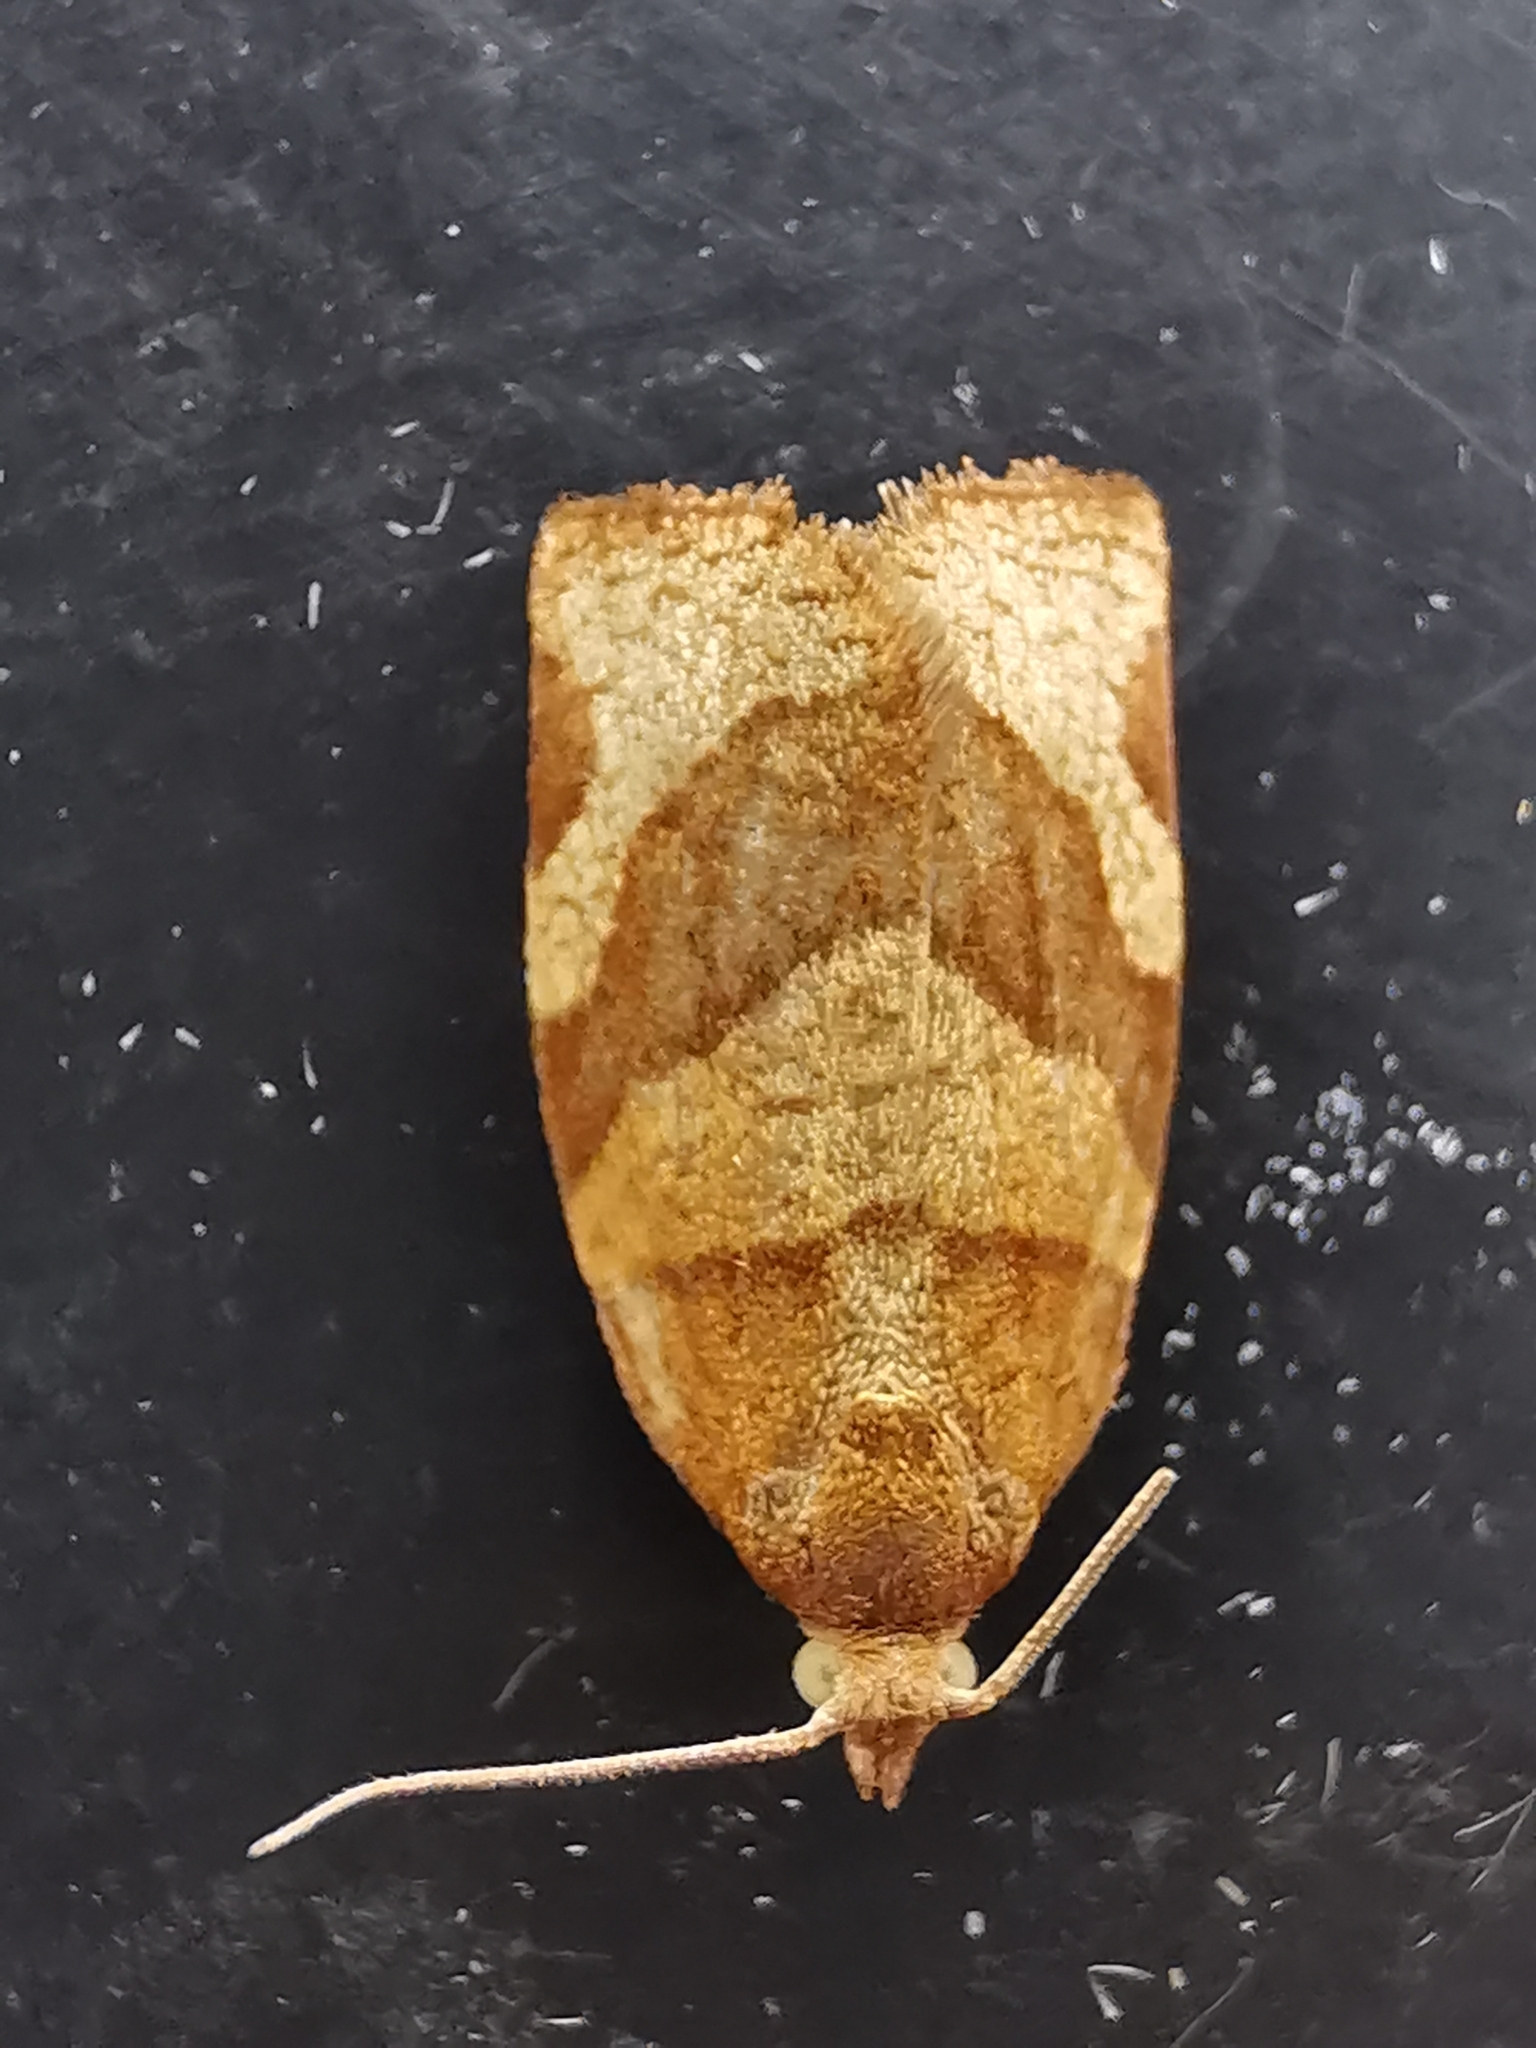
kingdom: Animalia
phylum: Arthropoda
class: Insecta
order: Lepidoptera
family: Tortricidae
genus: Pandemis
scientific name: Pandemis cerasana
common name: Barred fruit-tree tortrix
